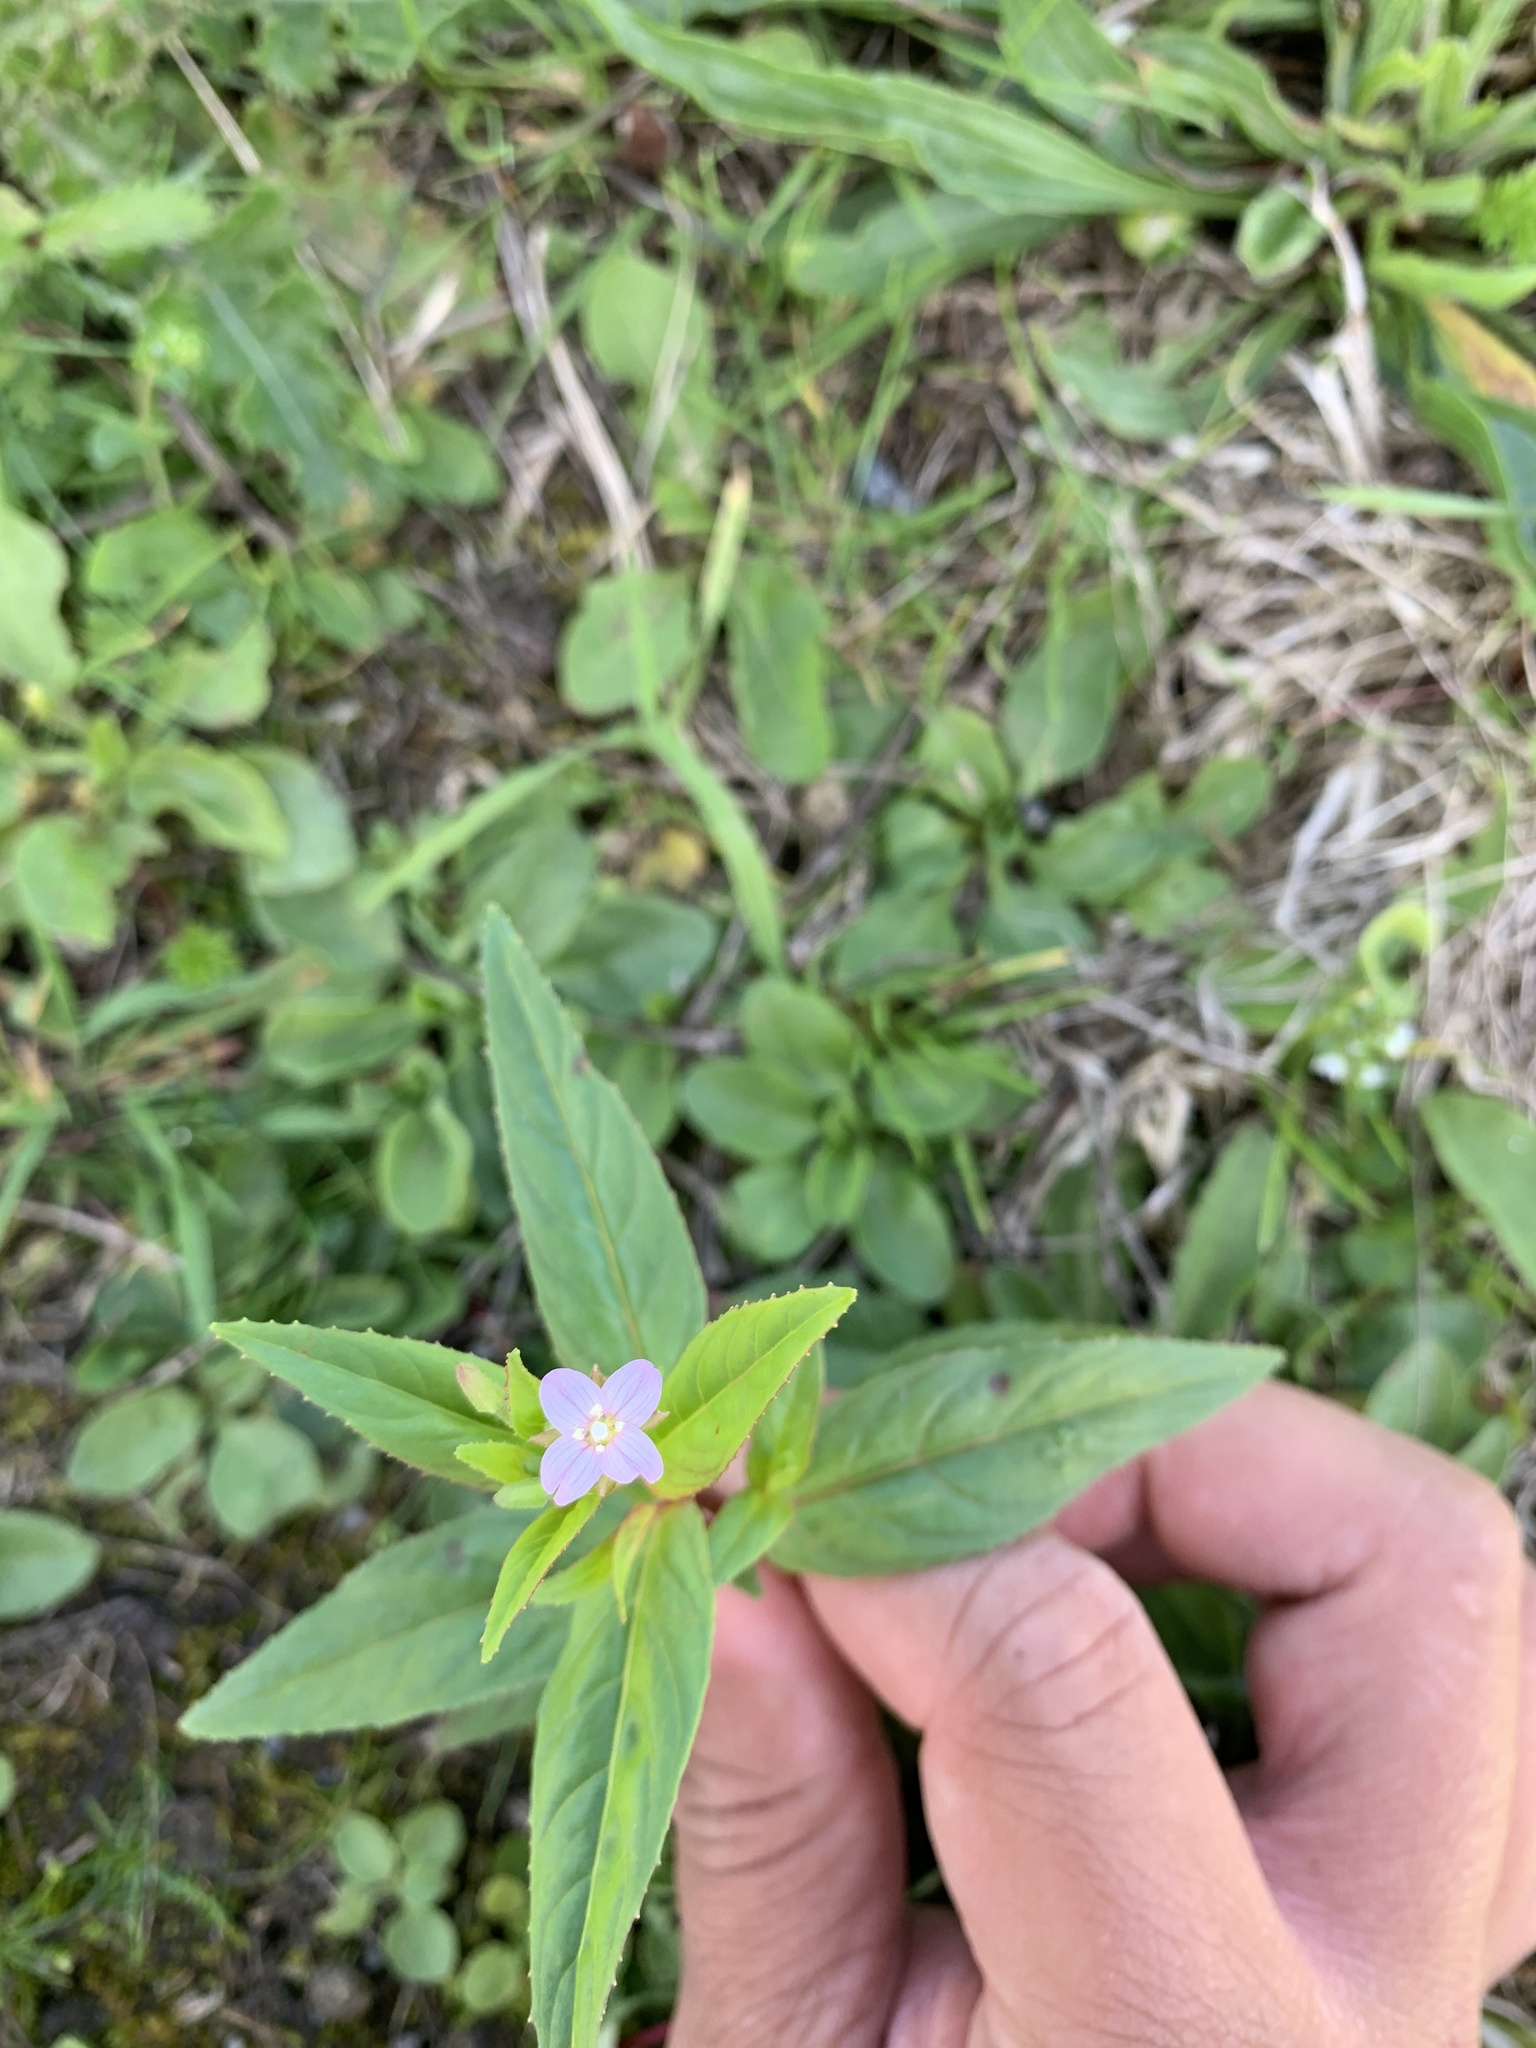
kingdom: Plantae
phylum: Tracheophyta
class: Magnoliopsida
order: Myrtales
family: Onagraceae
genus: Epilobium
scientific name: Epilobium montanum
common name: Broad-leaved willowherb
